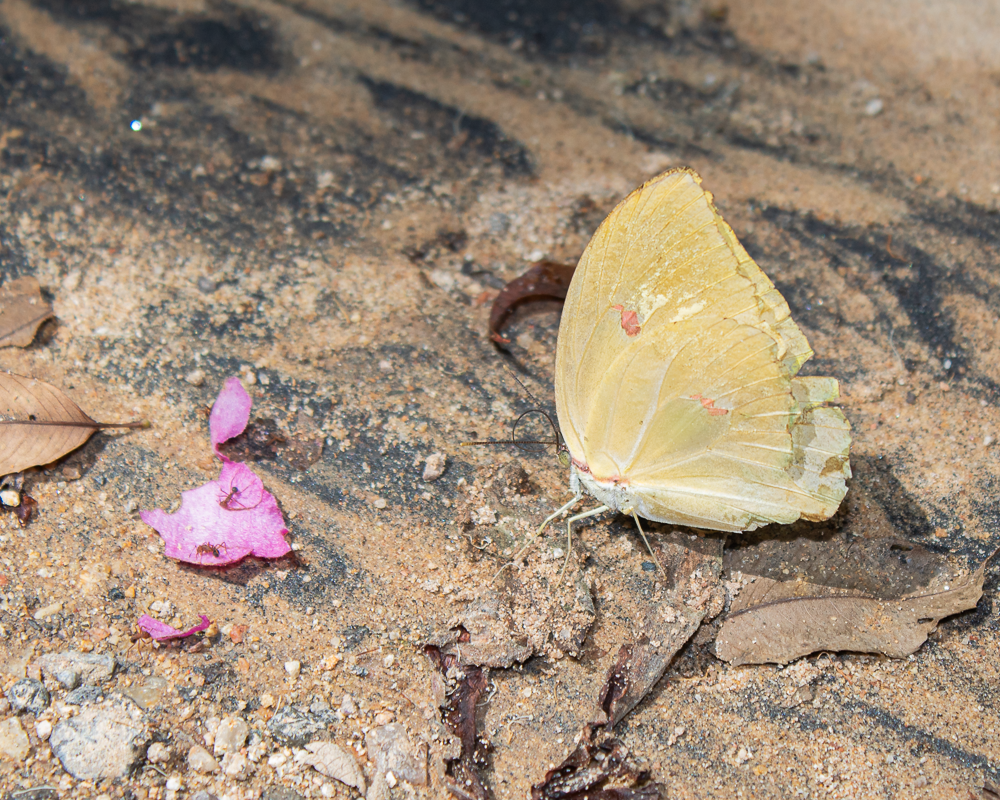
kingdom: Animalia
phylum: Arthropoda
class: Insecta
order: Lepidoptera
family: Pieridae
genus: Anteos
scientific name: Anteos menippe
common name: Orangetip angled-sulphur
